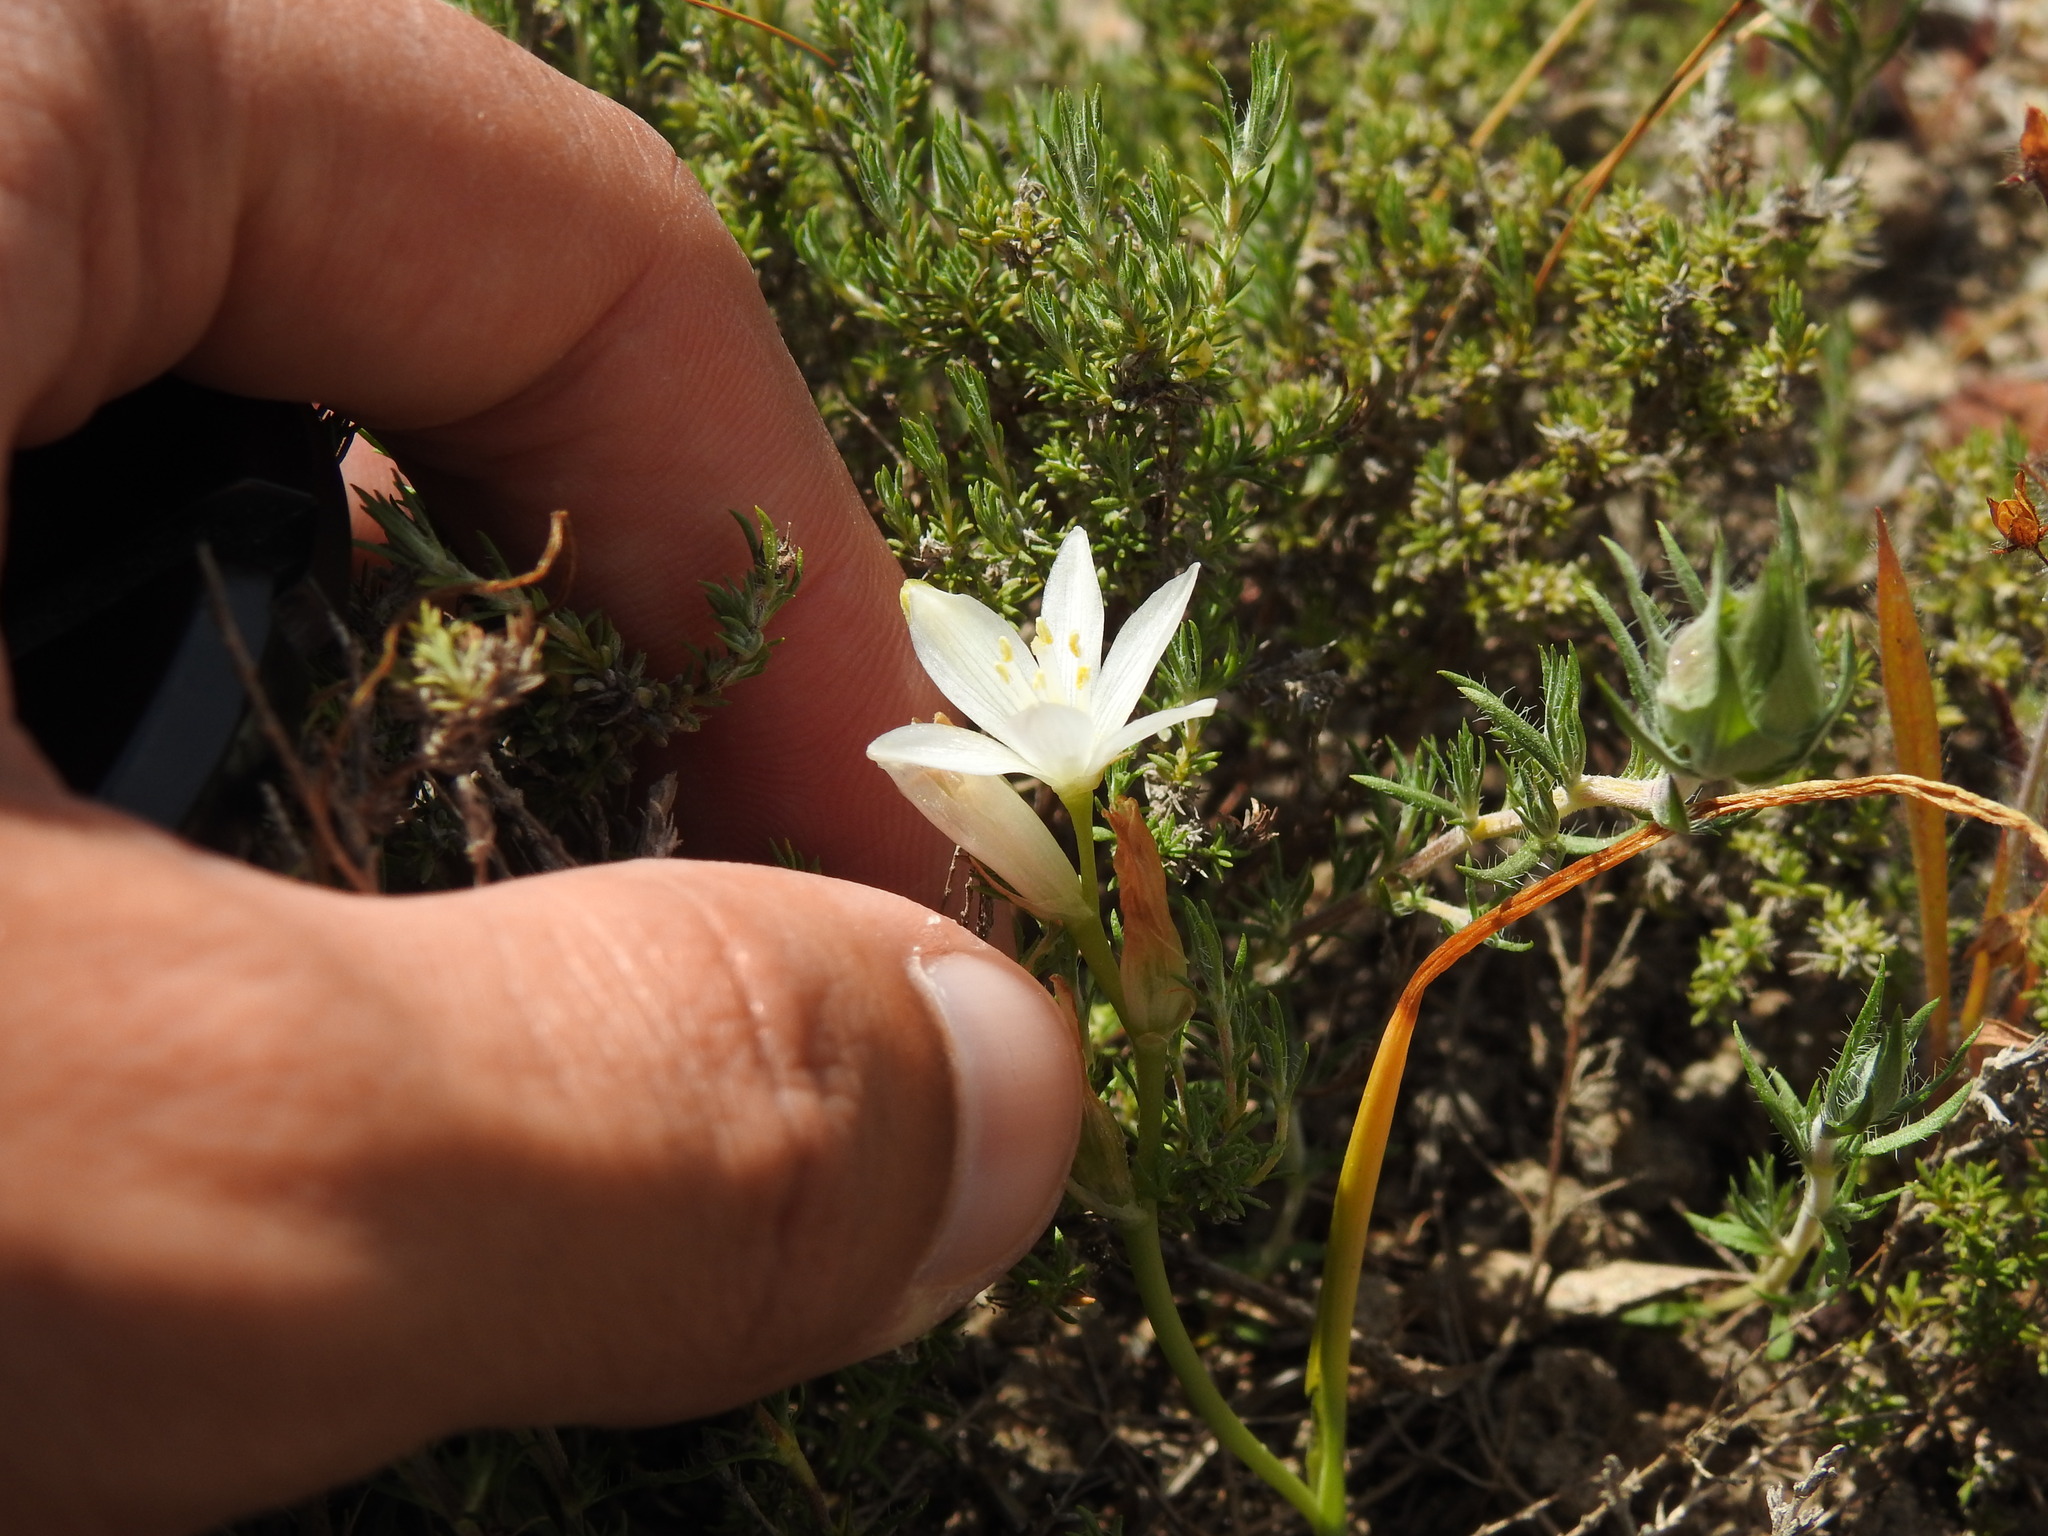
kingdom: Plantae
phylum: Tracheophyta
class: Liliopsida
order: Asparagales
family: Asparagaceae
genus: Ornithogalum
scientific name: Ornithogalum broteroi
